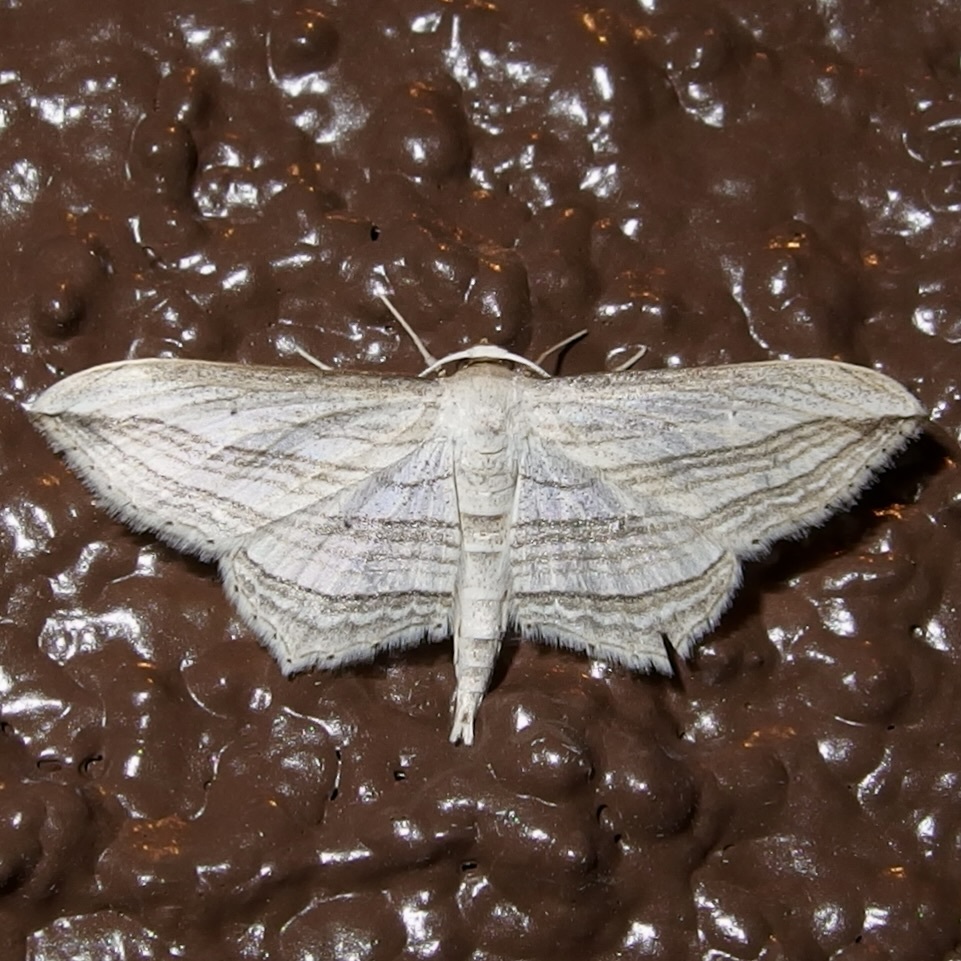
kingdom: Animalia
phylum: Arthropoda
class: Insecta
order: Lepidoptera
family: Geometridae
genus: Arcobara
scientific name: Arcobara multilineata
